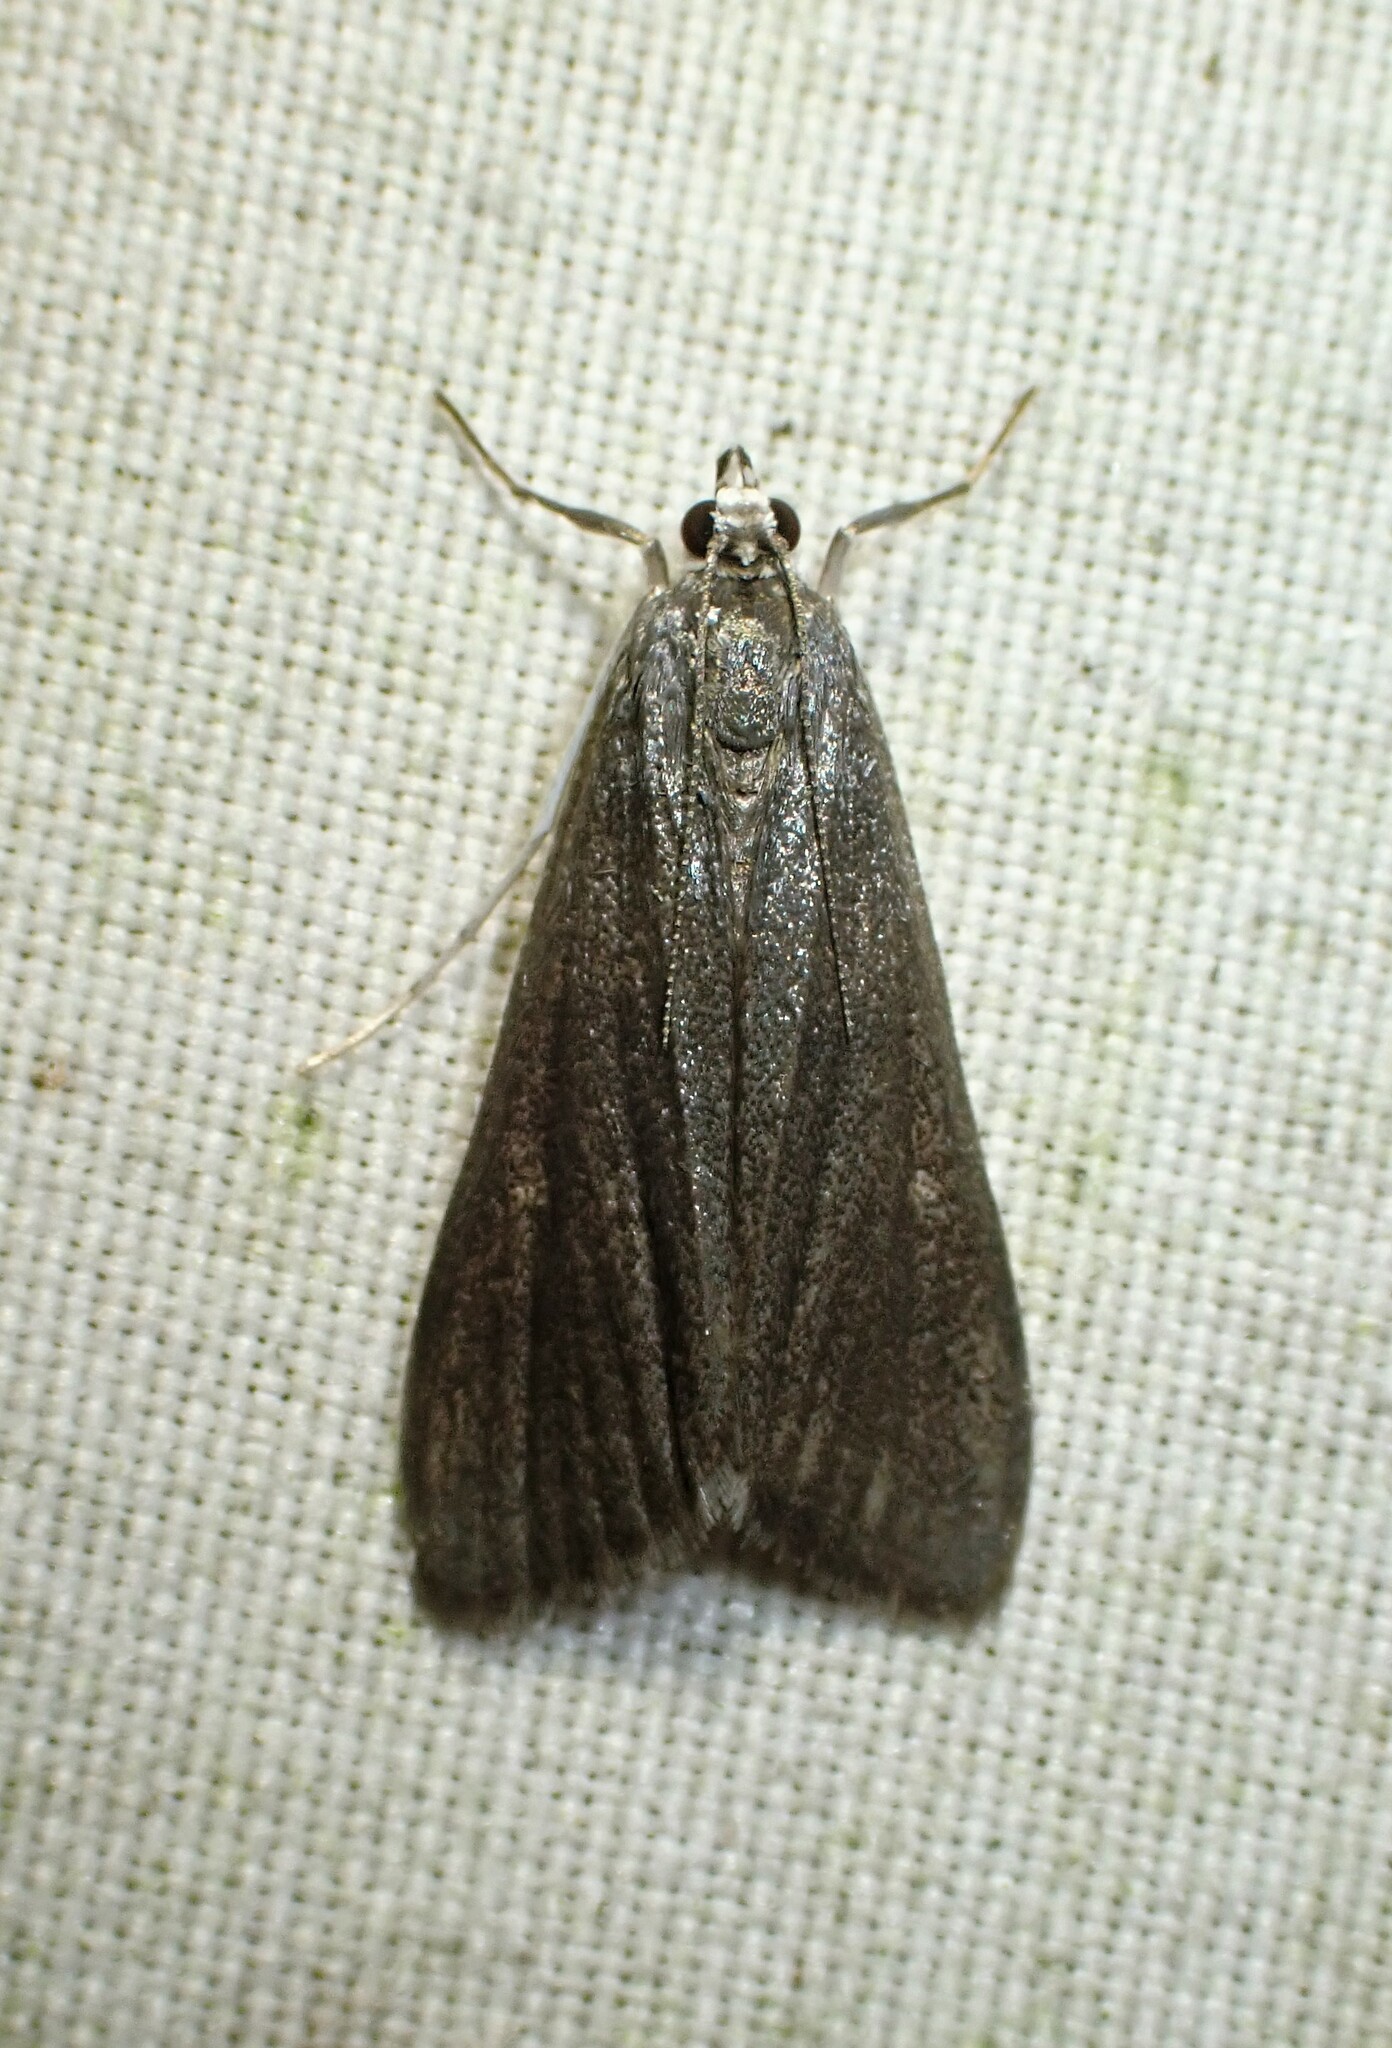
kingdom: Animalia
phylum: Arthropoda
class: Insecta
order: Lepidoptera
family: Crambidae
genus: Parapoynx
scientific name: Parapoynx maculalis
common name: Polymorphic pondweed moth
